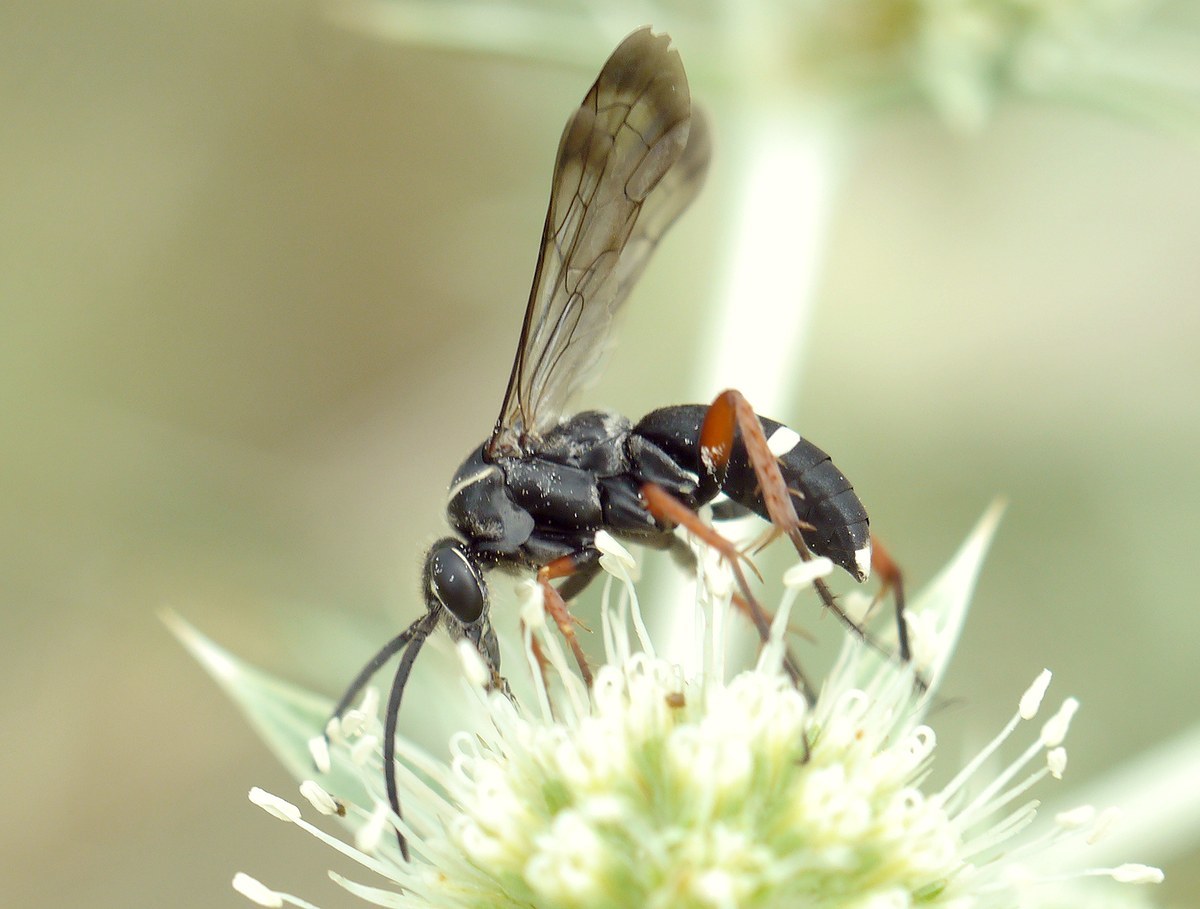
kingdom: Animalia
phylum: Arthropoda
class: Insecta
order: Hymenoptera
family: Pompilidae
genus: Episyron
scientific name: Episyron rufipes
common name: Red legged spider wasp
